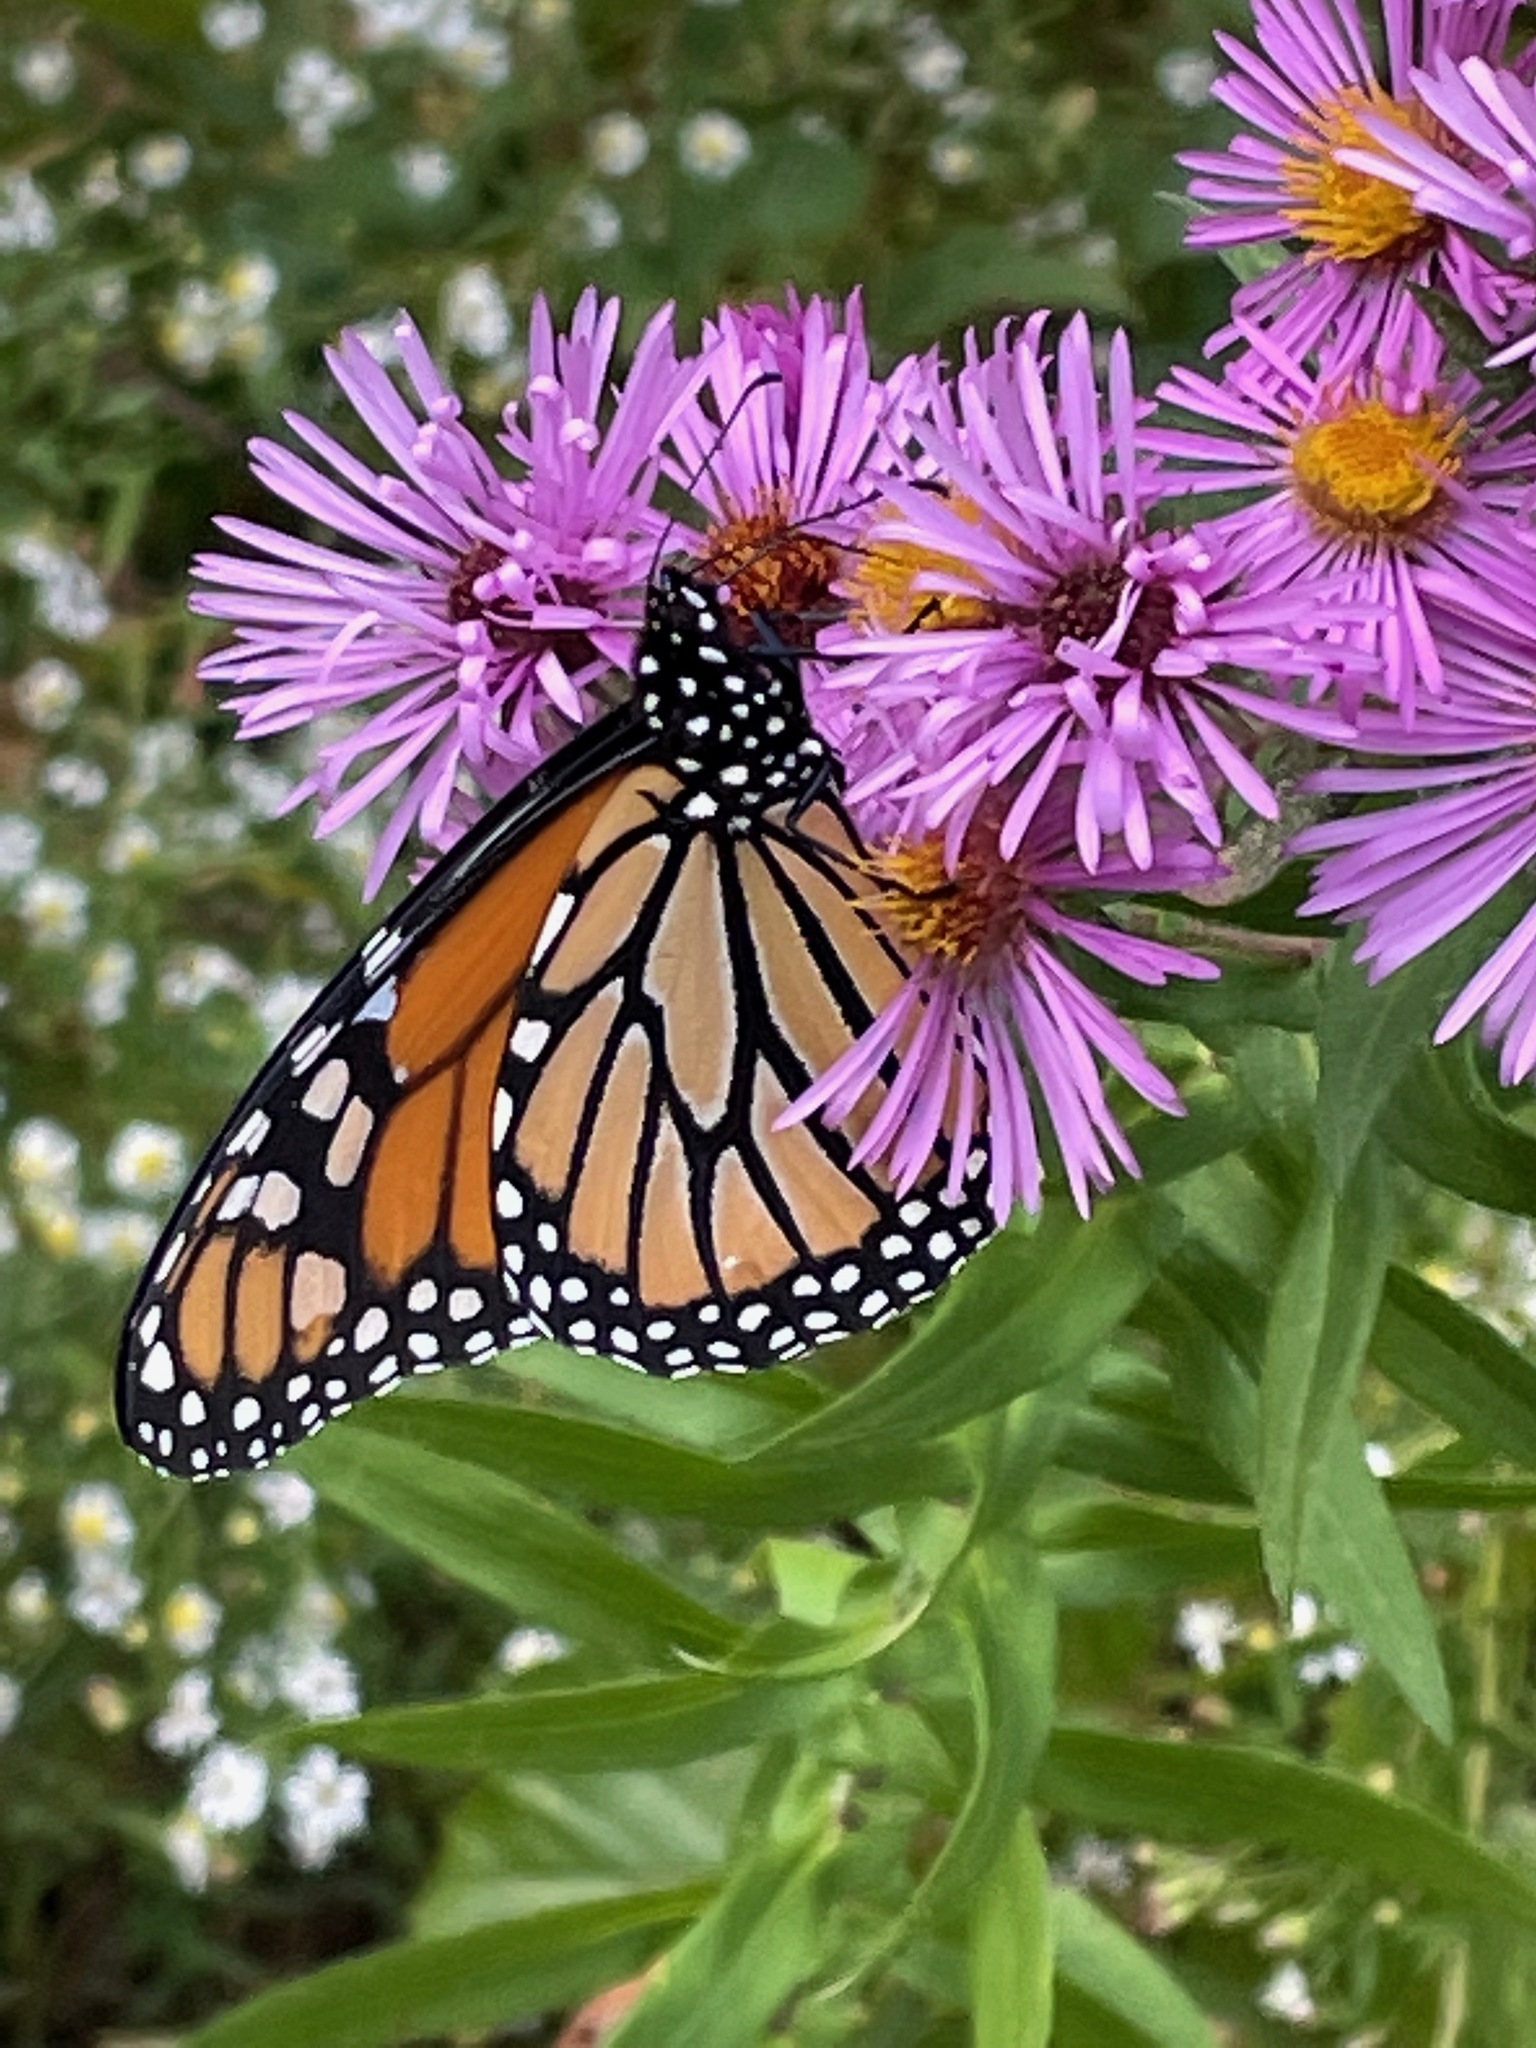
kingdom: Animalia
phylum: Arthropoda
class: Insecta
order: Lepidoptera
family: Nymphalidae
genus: Danaus
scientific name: Danaus plexippus
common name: Monarch
